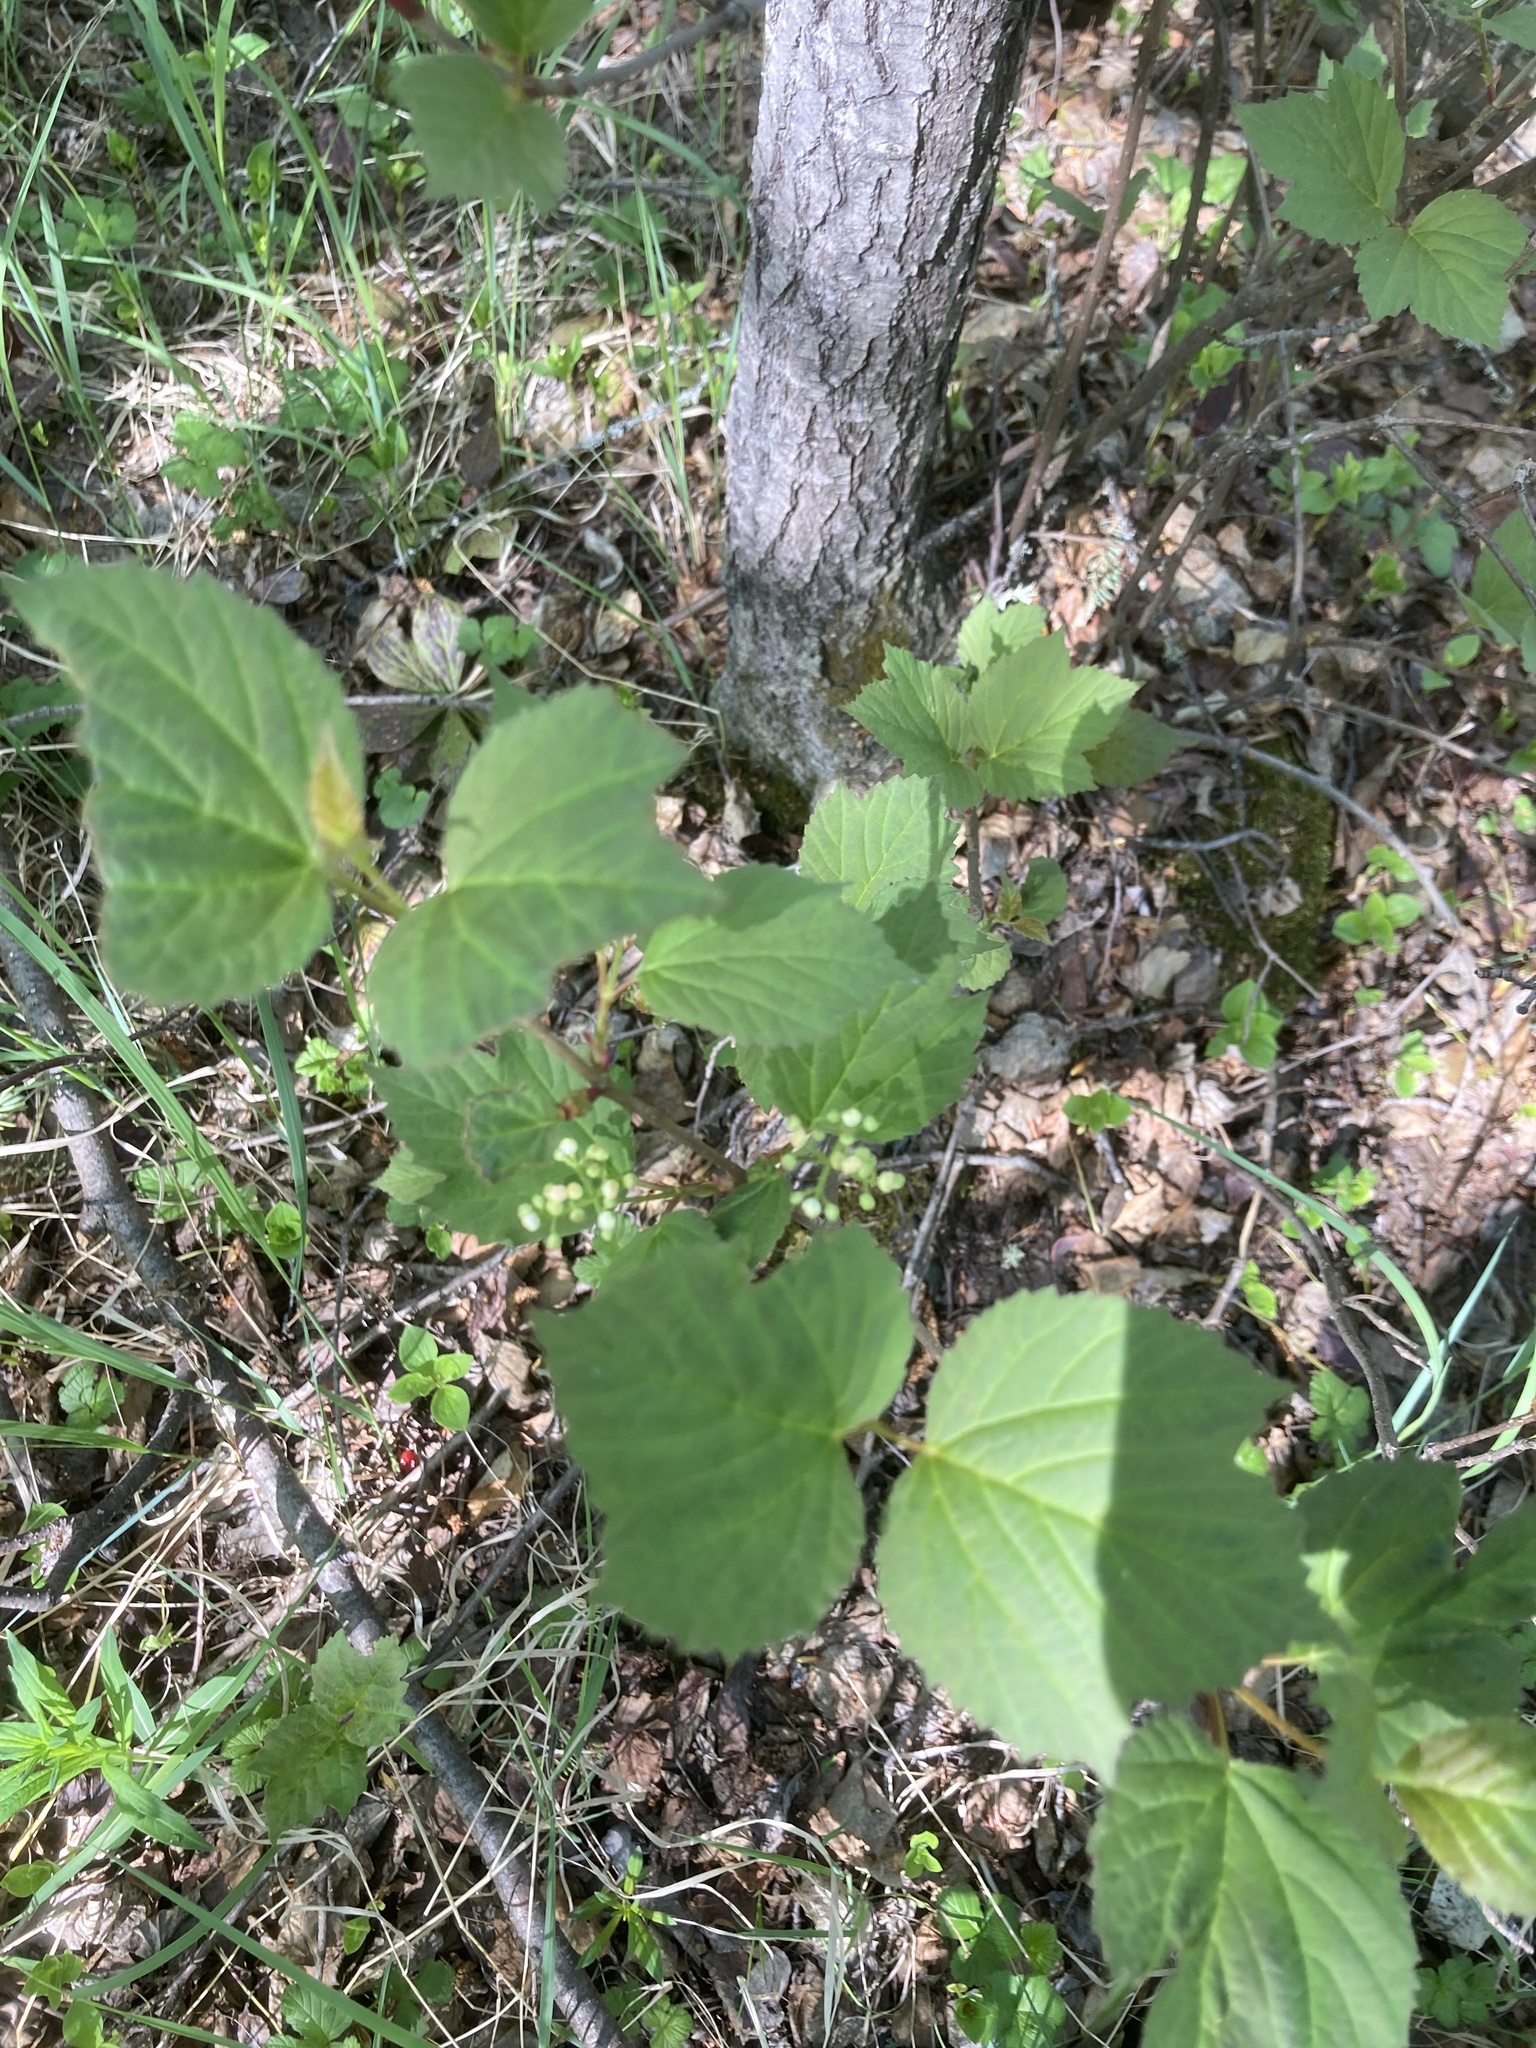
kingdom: Plantae
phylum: Tracheophyta
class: Magnoliopsida
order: Rosales
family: Rosaceae
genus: Rubus
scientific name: Rubus arcticus
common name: Arctic bramble
